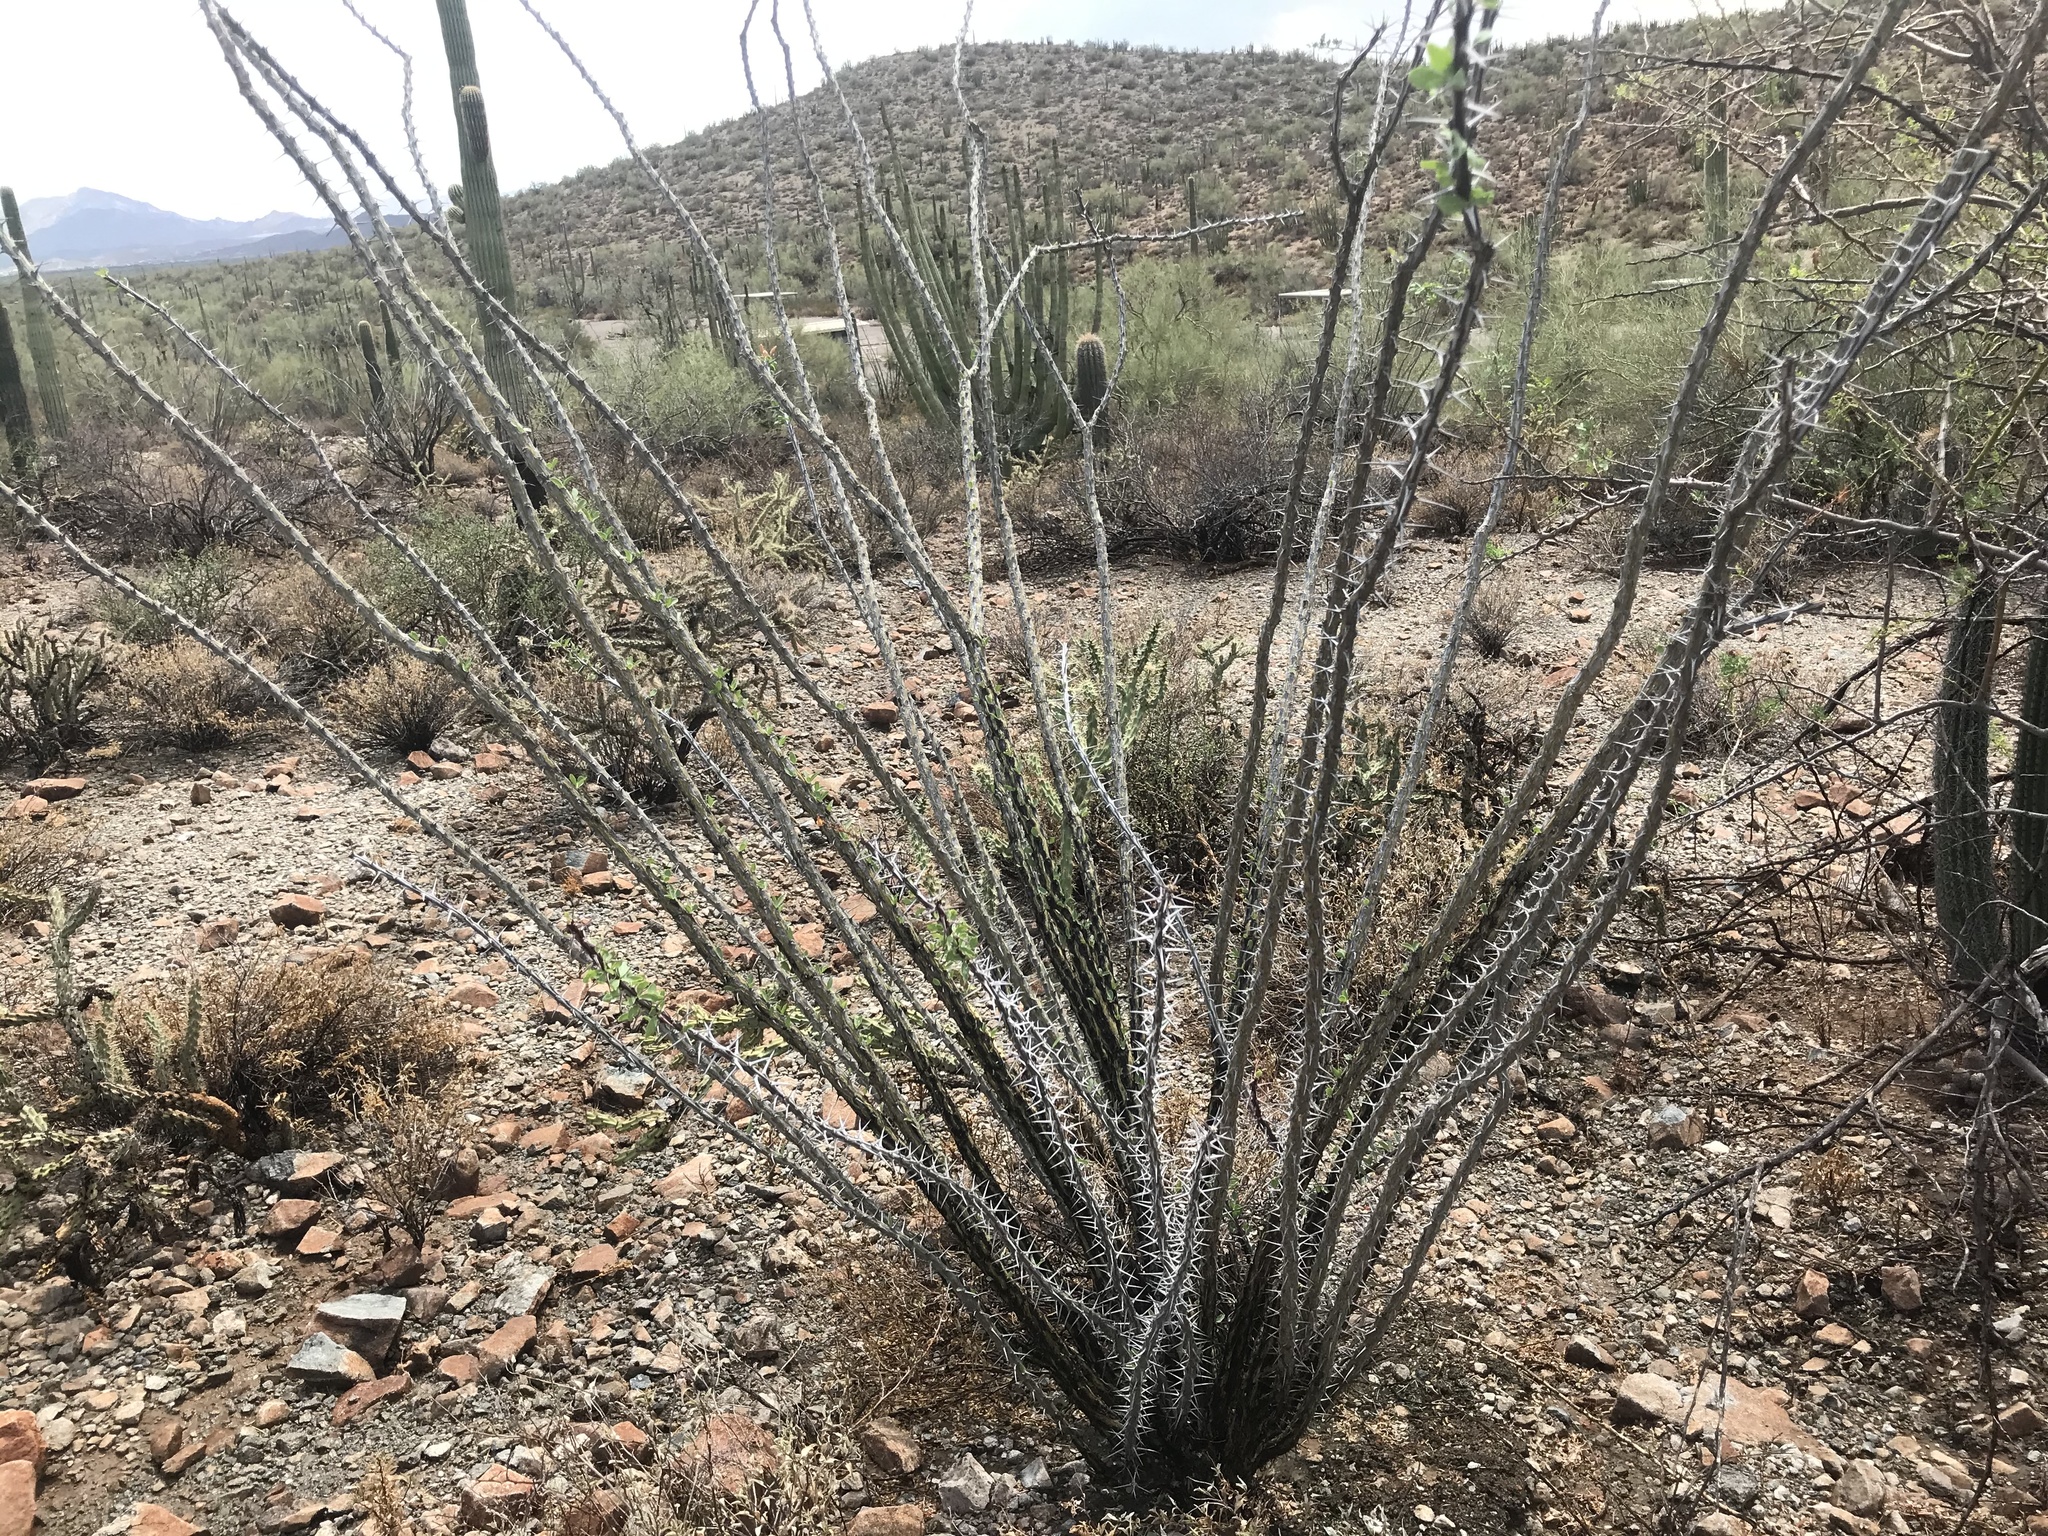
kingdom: Plantae
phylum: Tracheophyta
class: Magnoliopsida
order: Ericales
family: Fouquieriaceae
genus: Fouquieria
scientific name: Fouquieria splendens
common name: Vine-cactus
